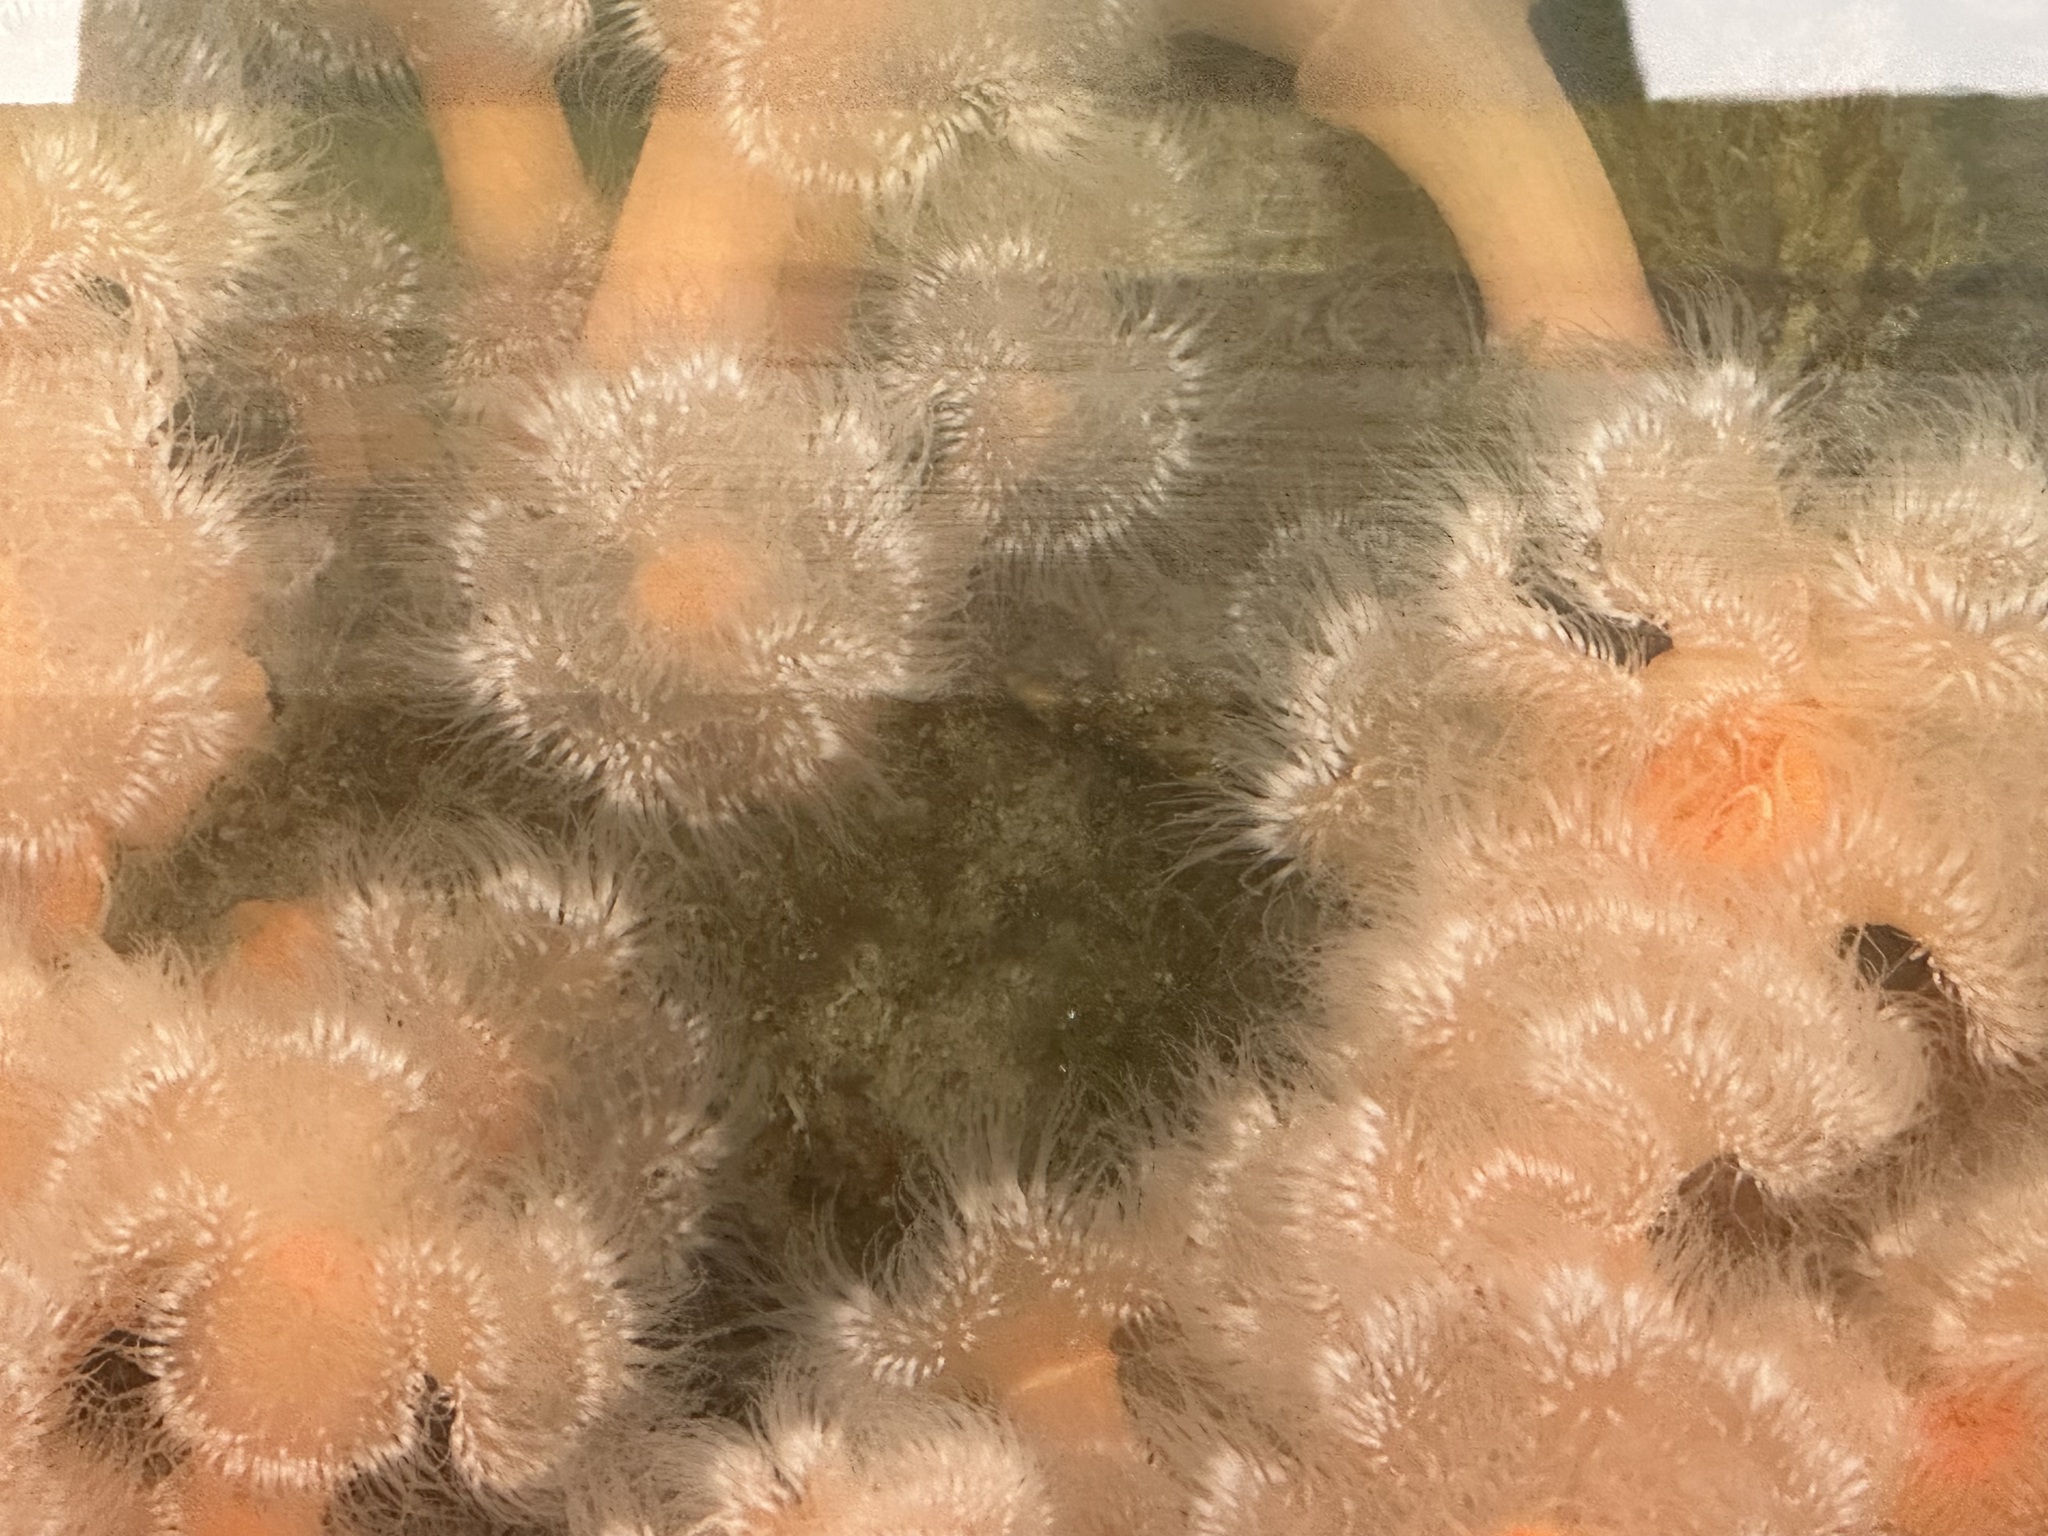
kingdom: Animalia
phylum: Cnidaria
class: Anthozoa
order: Actiniaria
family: Metridiidae
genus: Metridium
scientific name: Metridium senile
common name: Clonal plumose anemone
